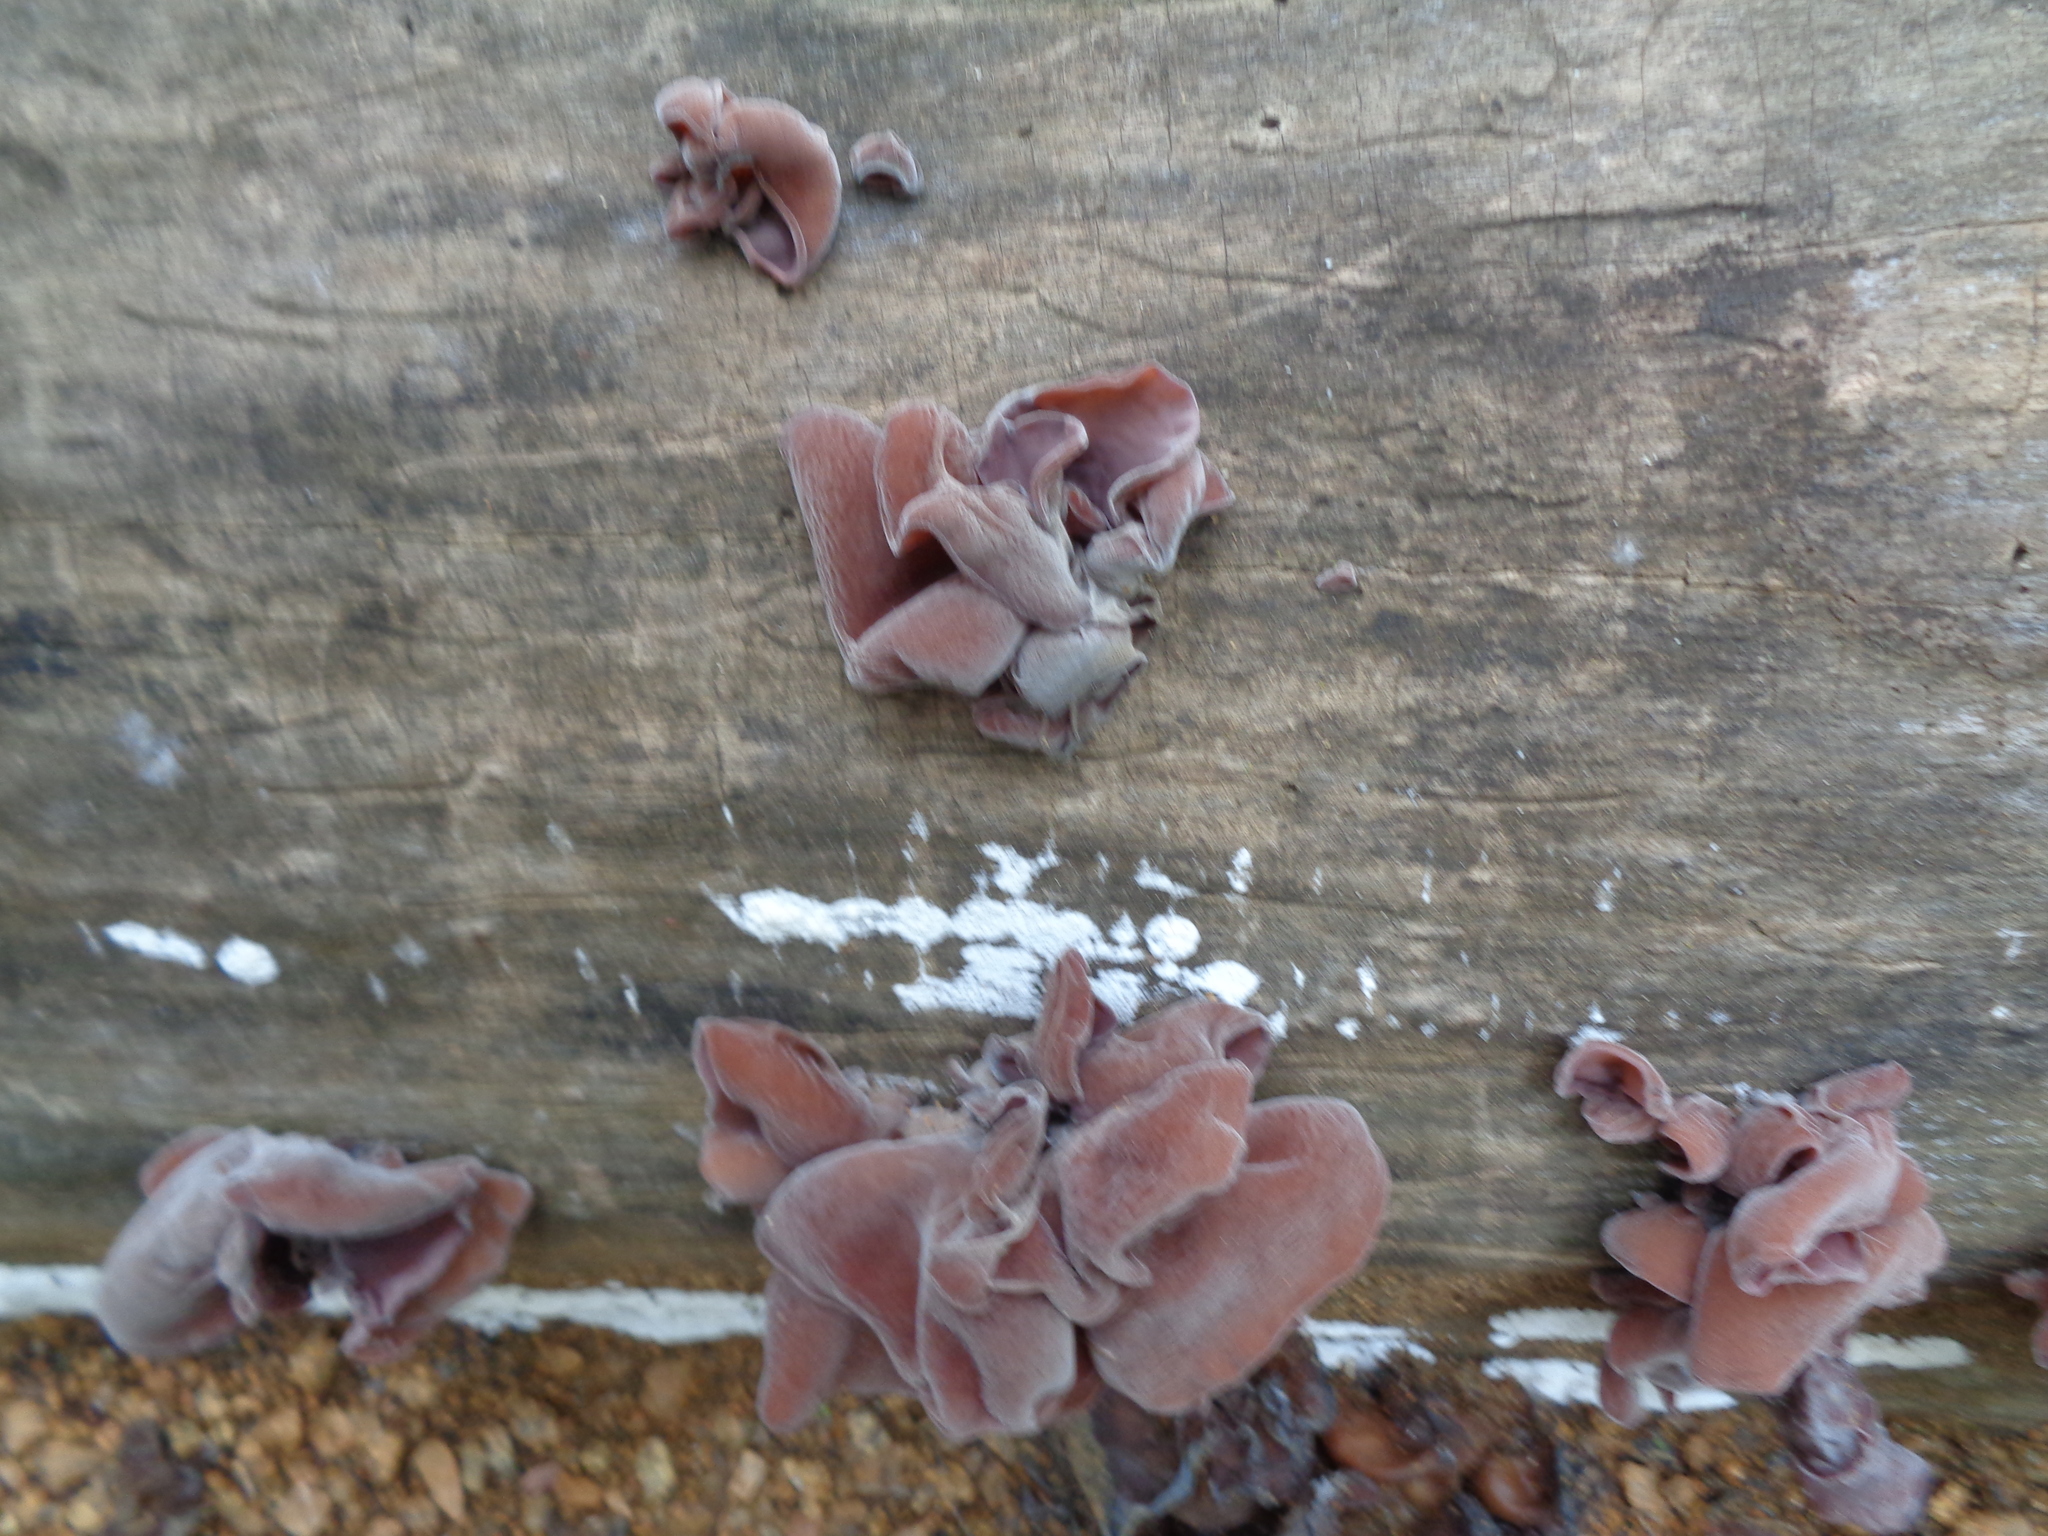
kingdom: Fungi
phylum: Basidiomycota
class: Agaricomycetes
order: Auriculariales
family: Auriculariaceae
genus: Auricularia
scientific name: Auricularia americana
